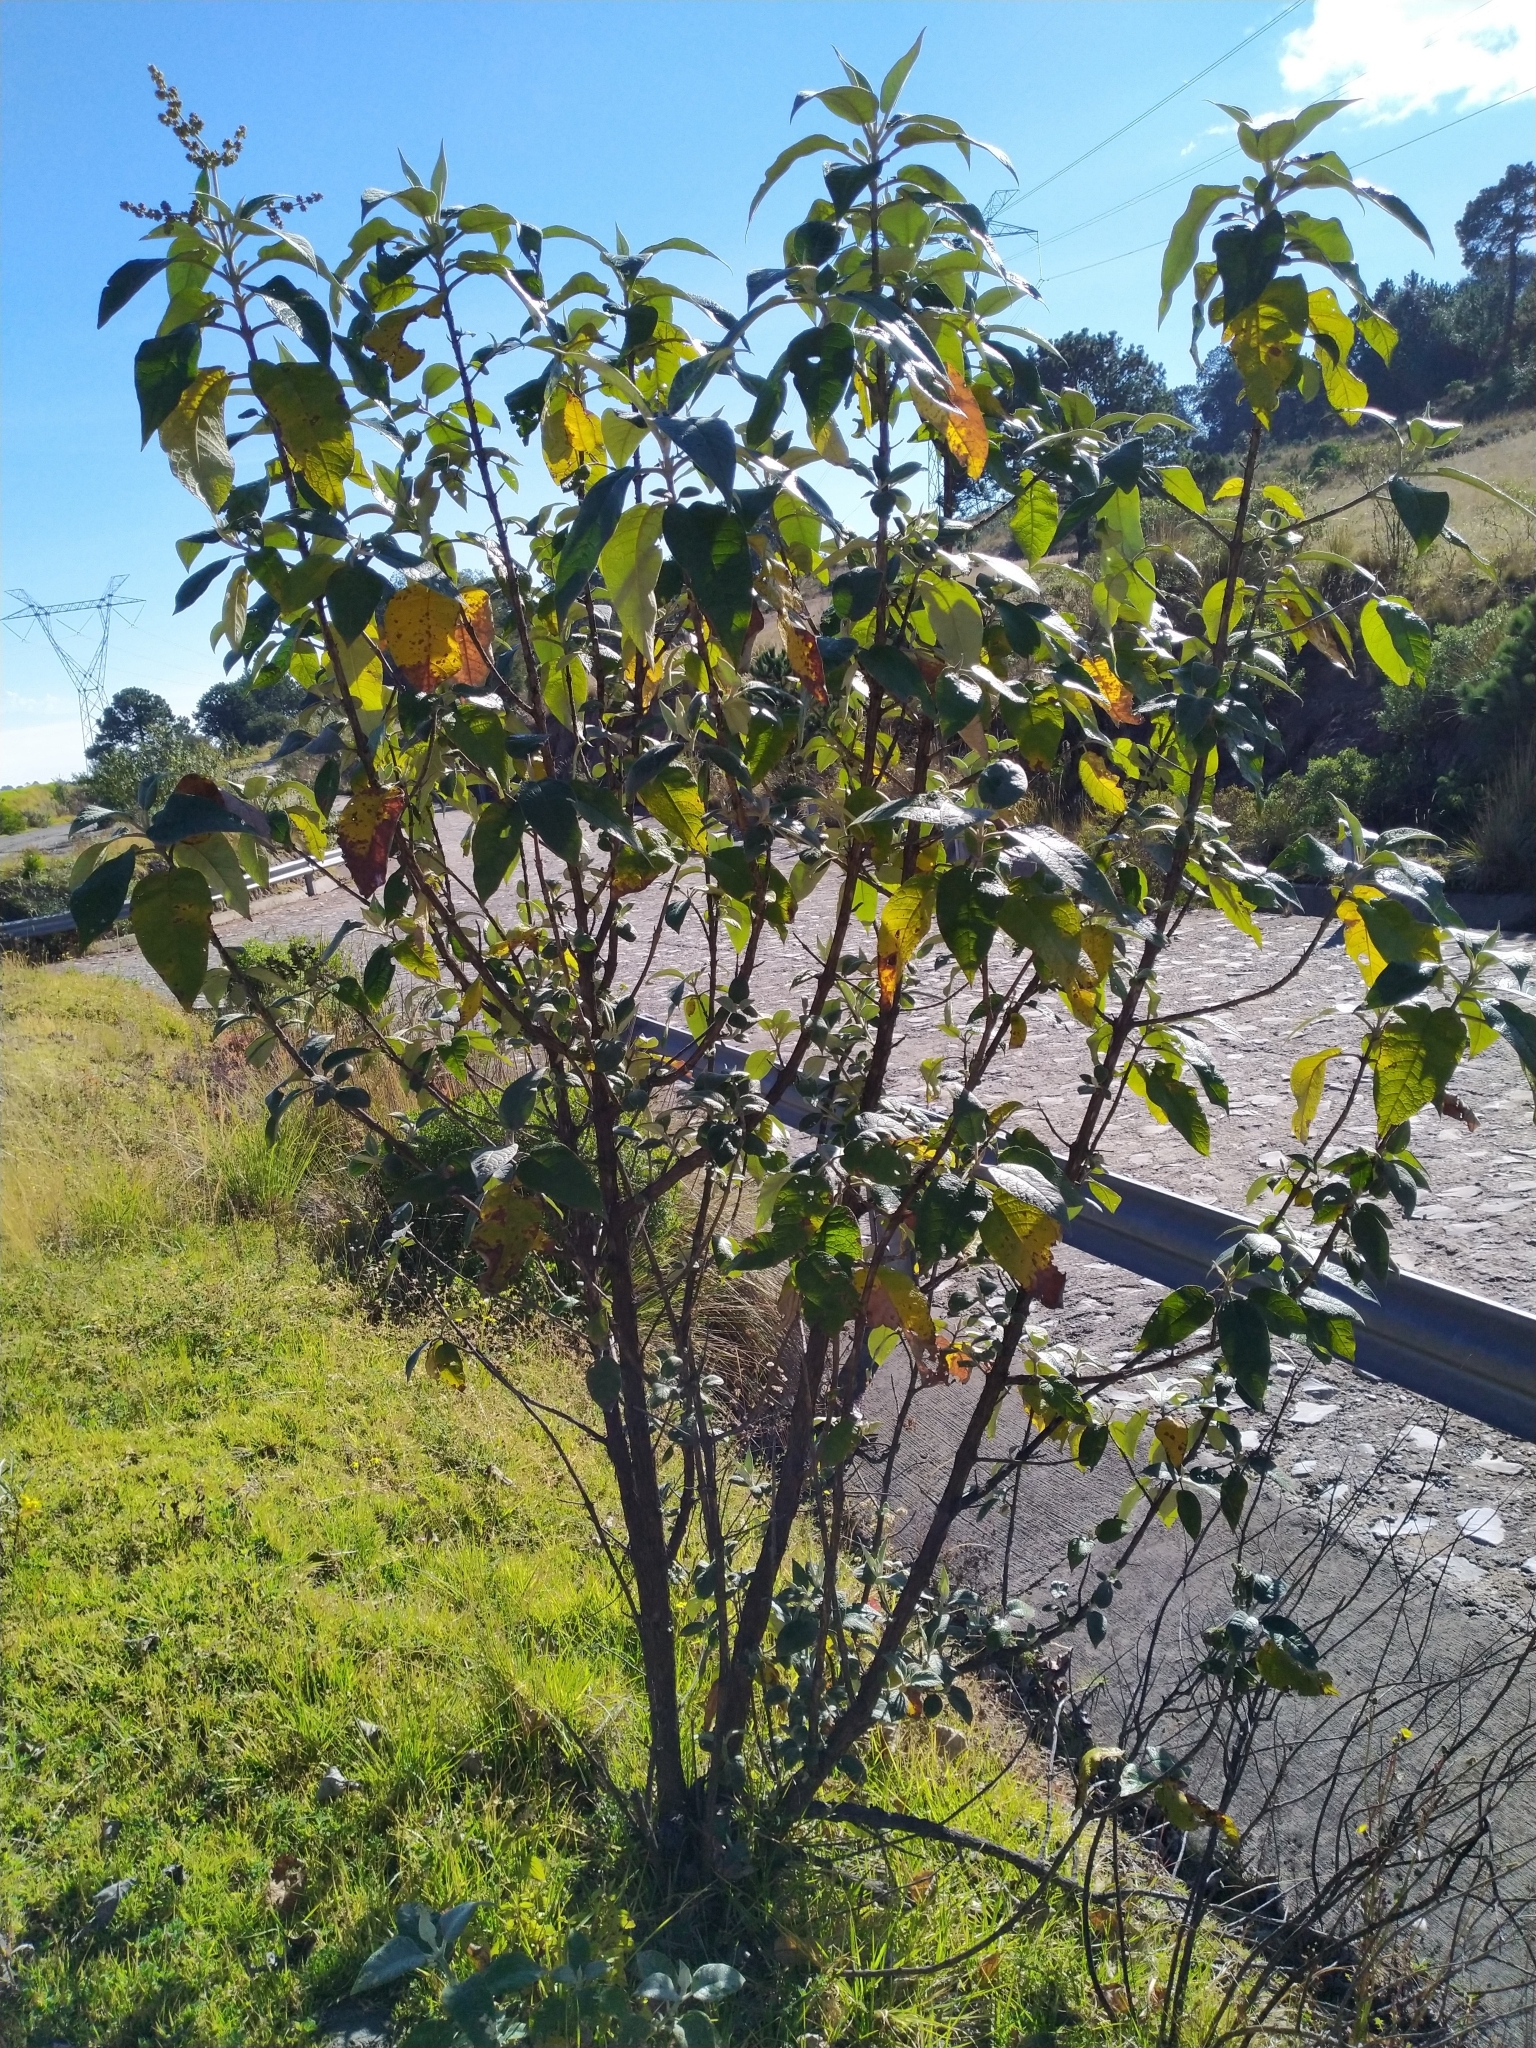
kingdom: Plantae
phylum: Tracheophyta
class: Magnoliopsida
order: Lamiales
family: Scrophulariaceae
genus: Buddleja
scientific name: Buddleja cordata
